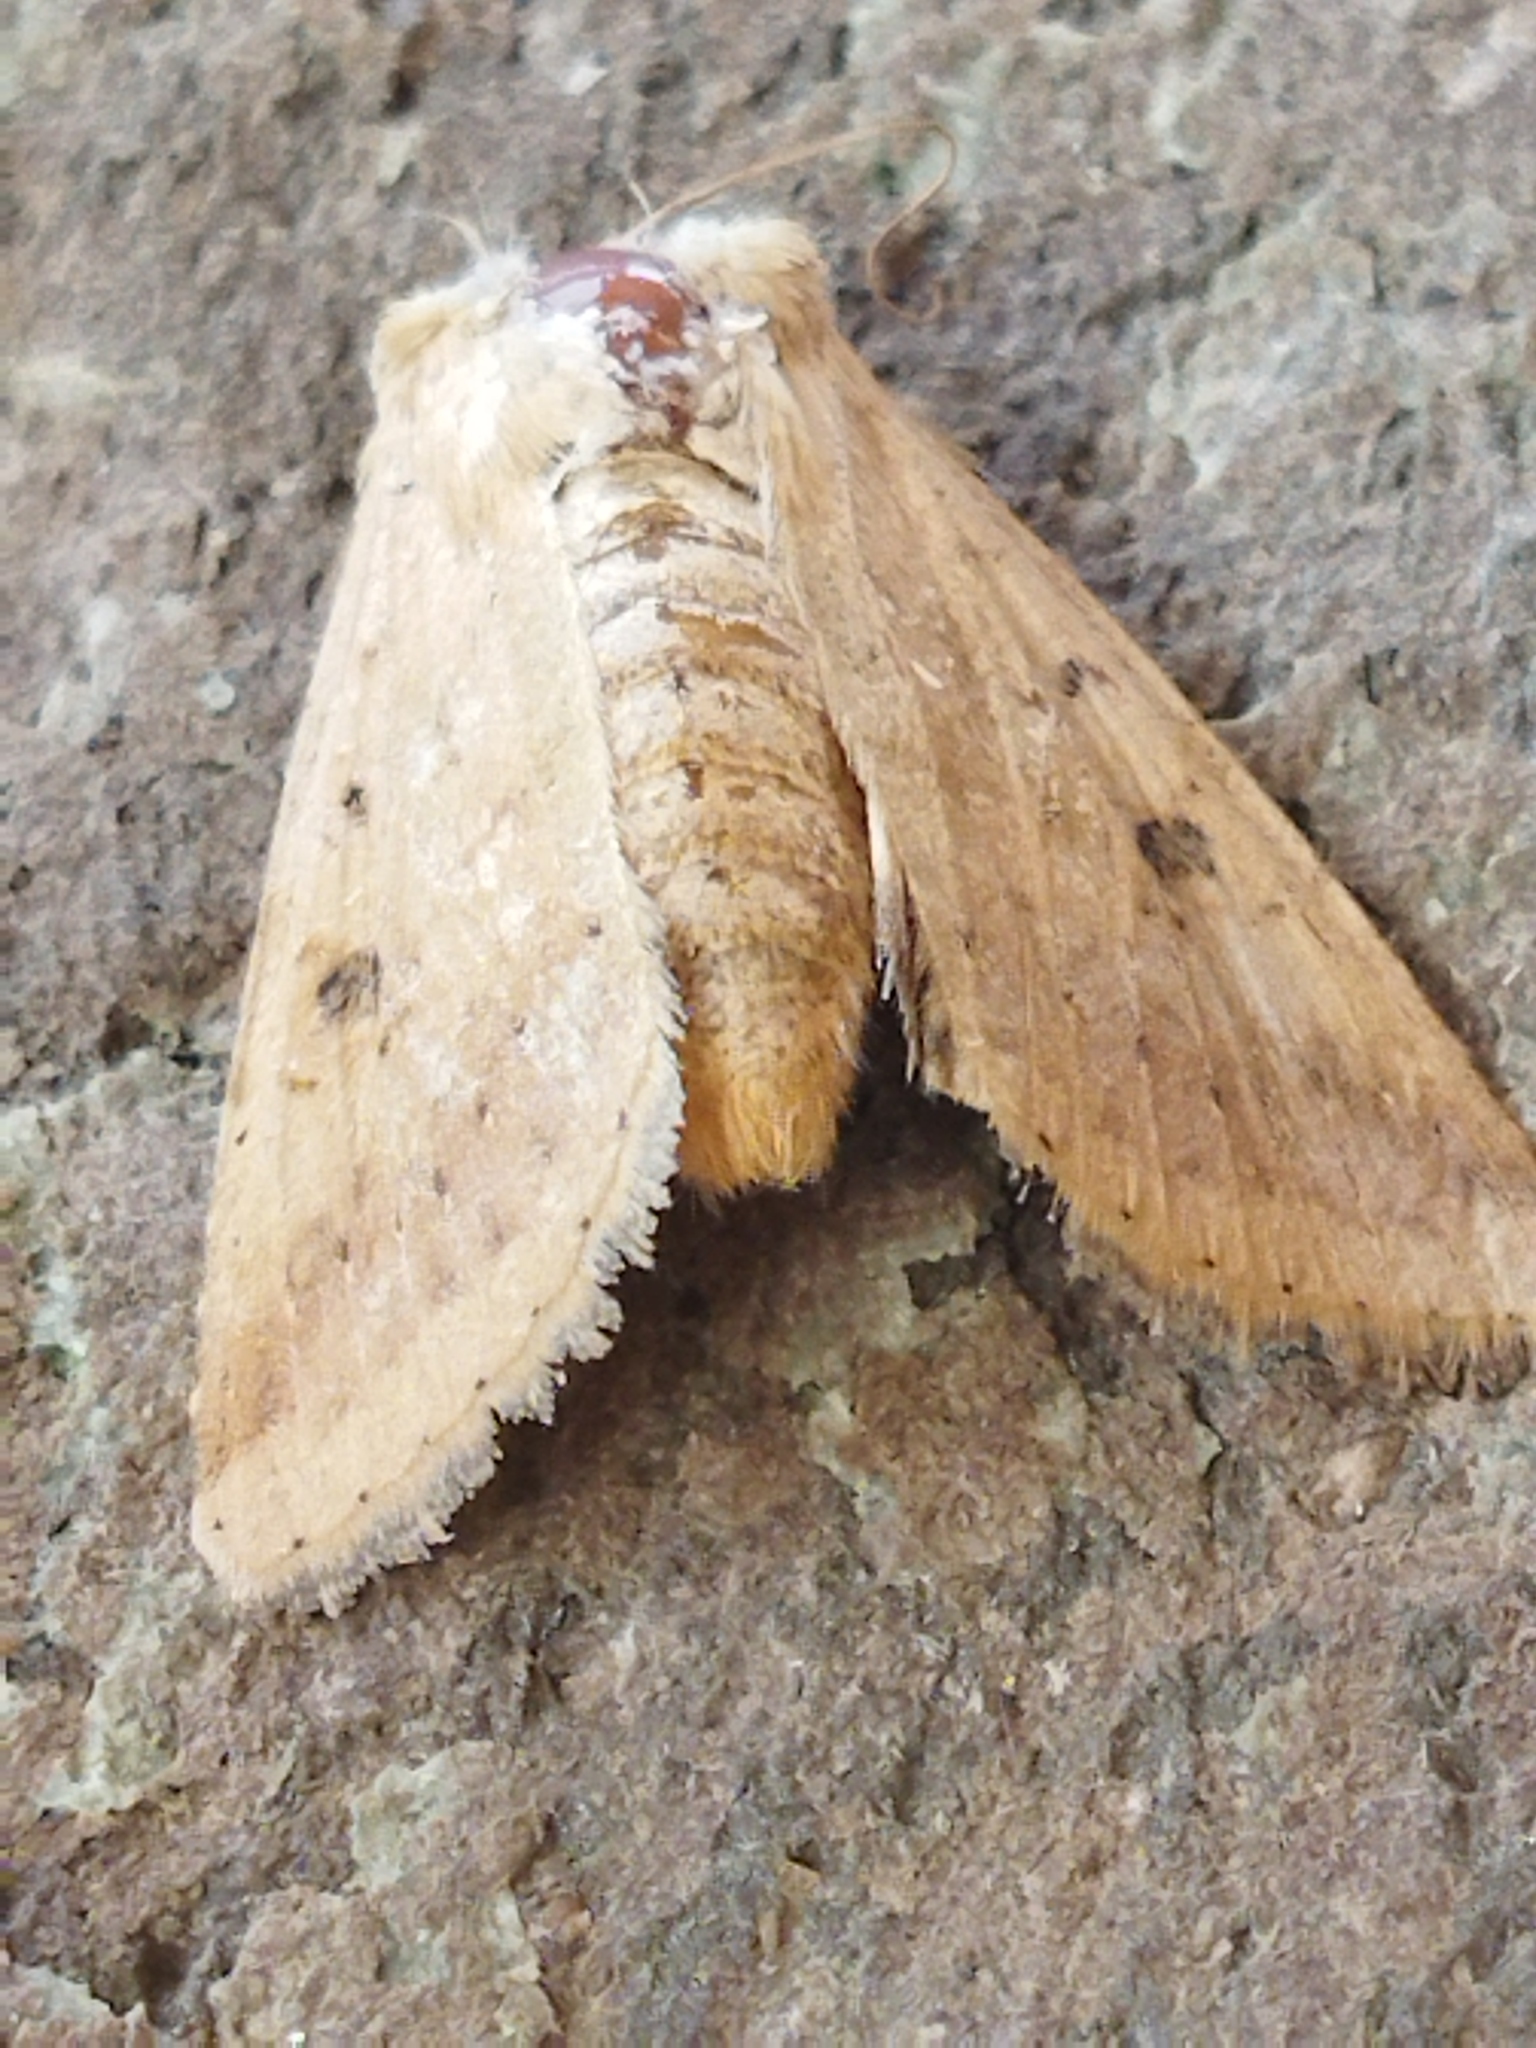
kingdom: Animalia
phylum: Arthropoda
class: Insecta
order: Lepidoptera
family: Noctuidae
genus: Helicoverpa
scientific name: Helicoverpa armigera
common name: Cotton bollworm
